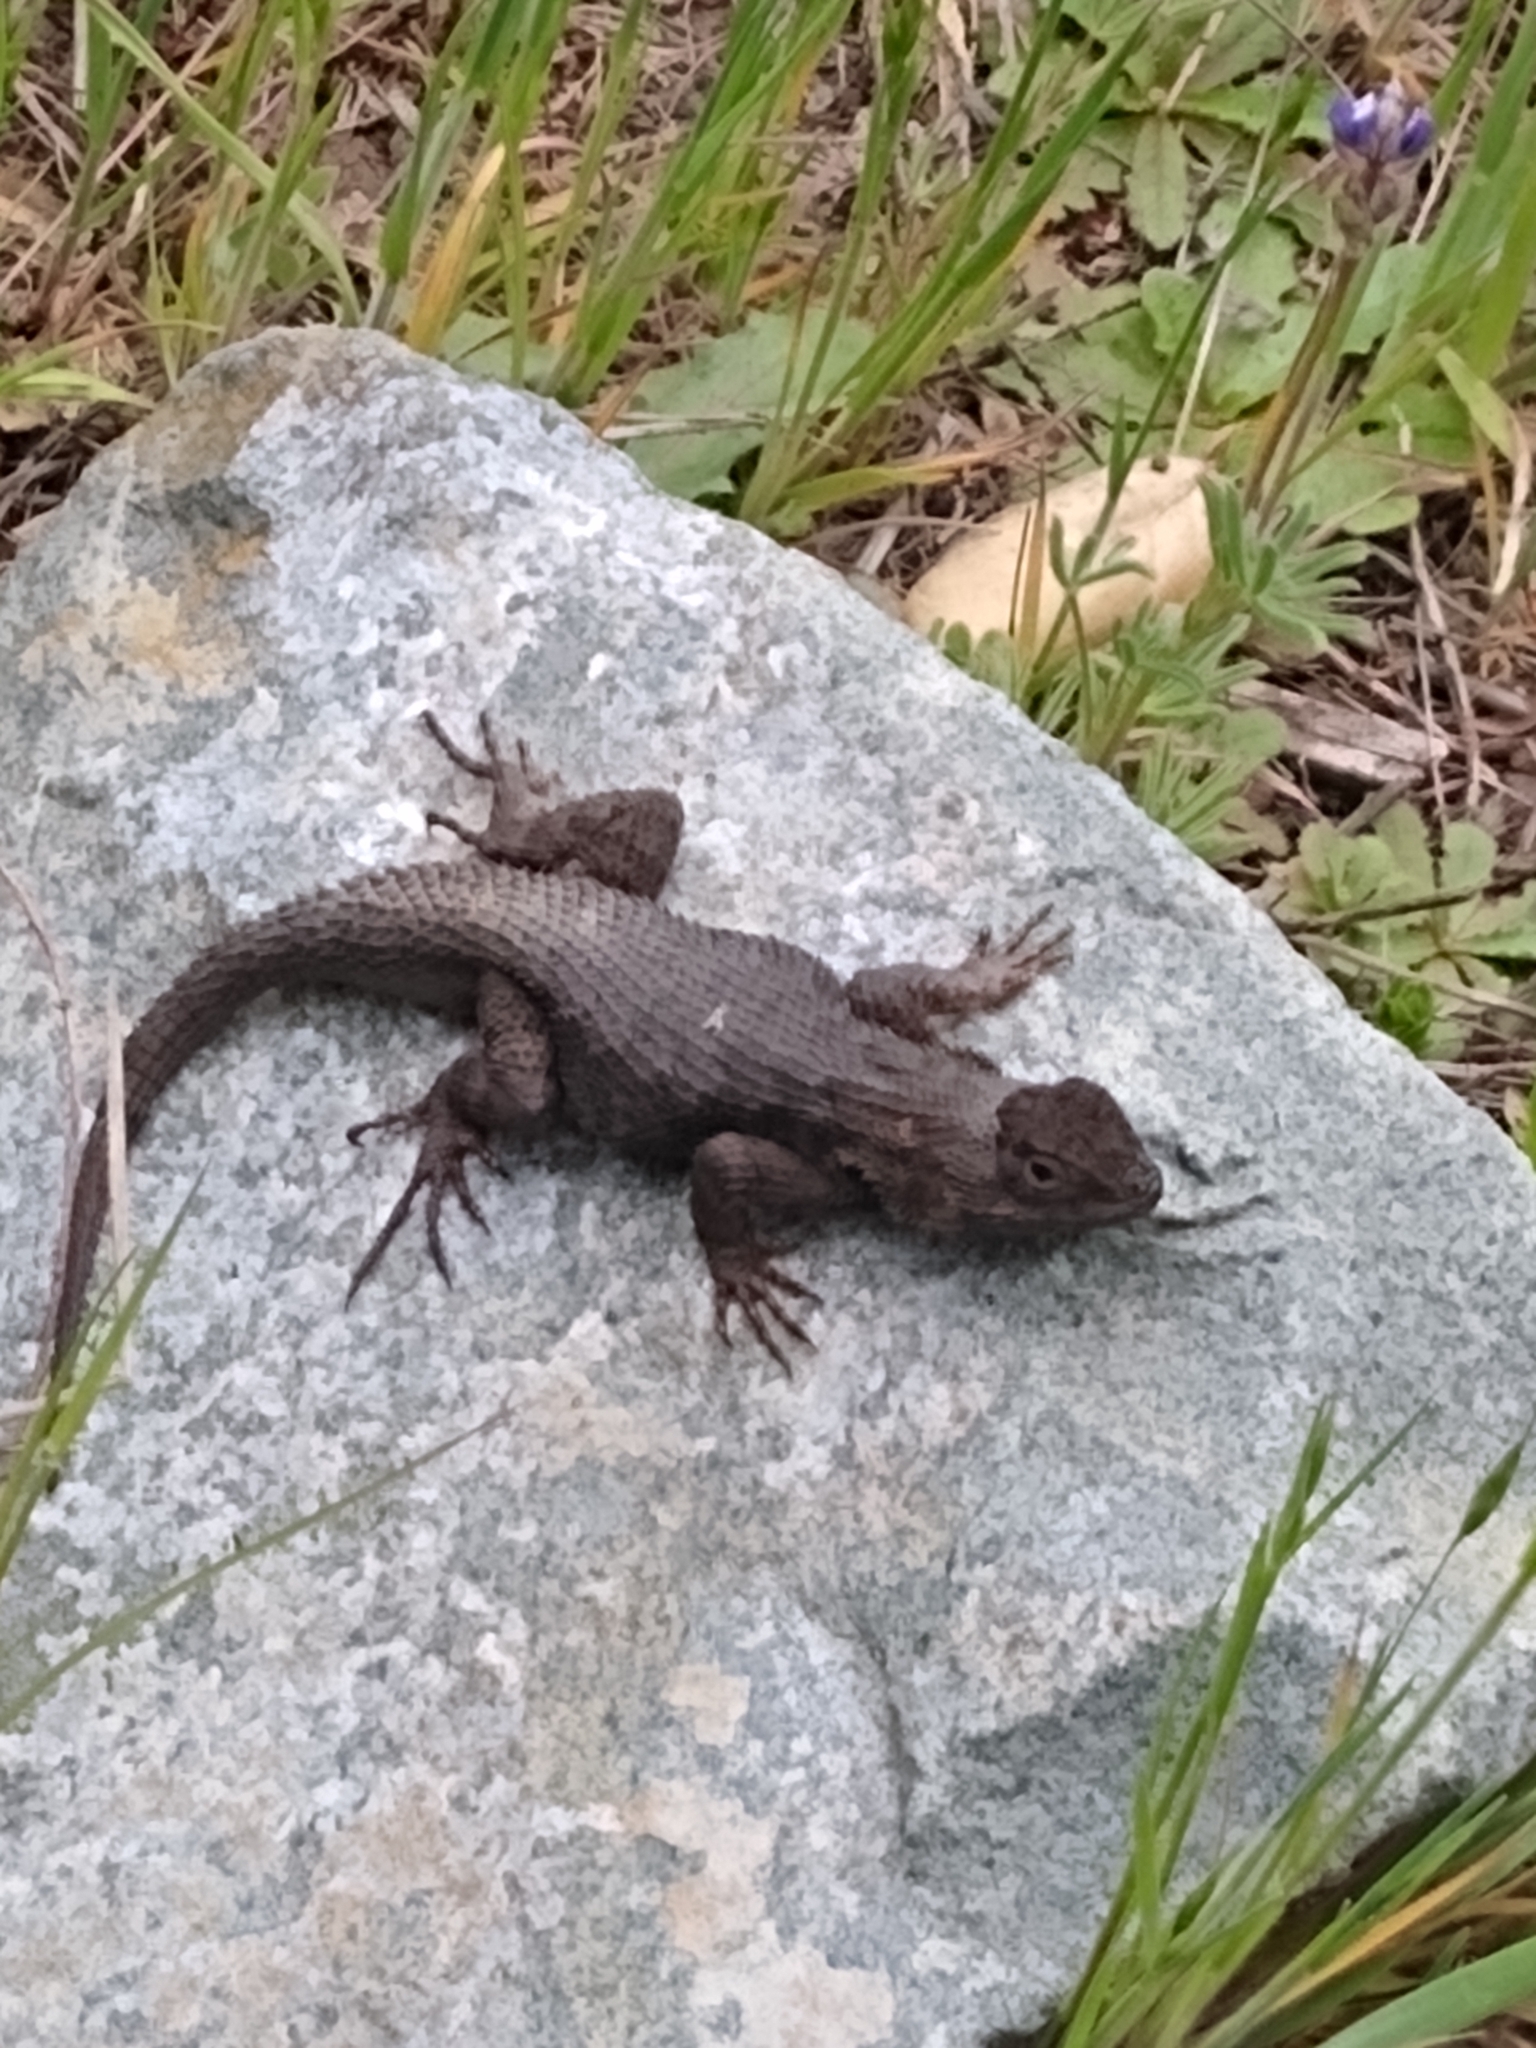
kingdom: Animalia
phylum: Chordata
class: Squamata
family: Phrynosomatidae
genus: Sceloporus
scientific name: Sceloporus occidentalis
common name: Western fence lizard
